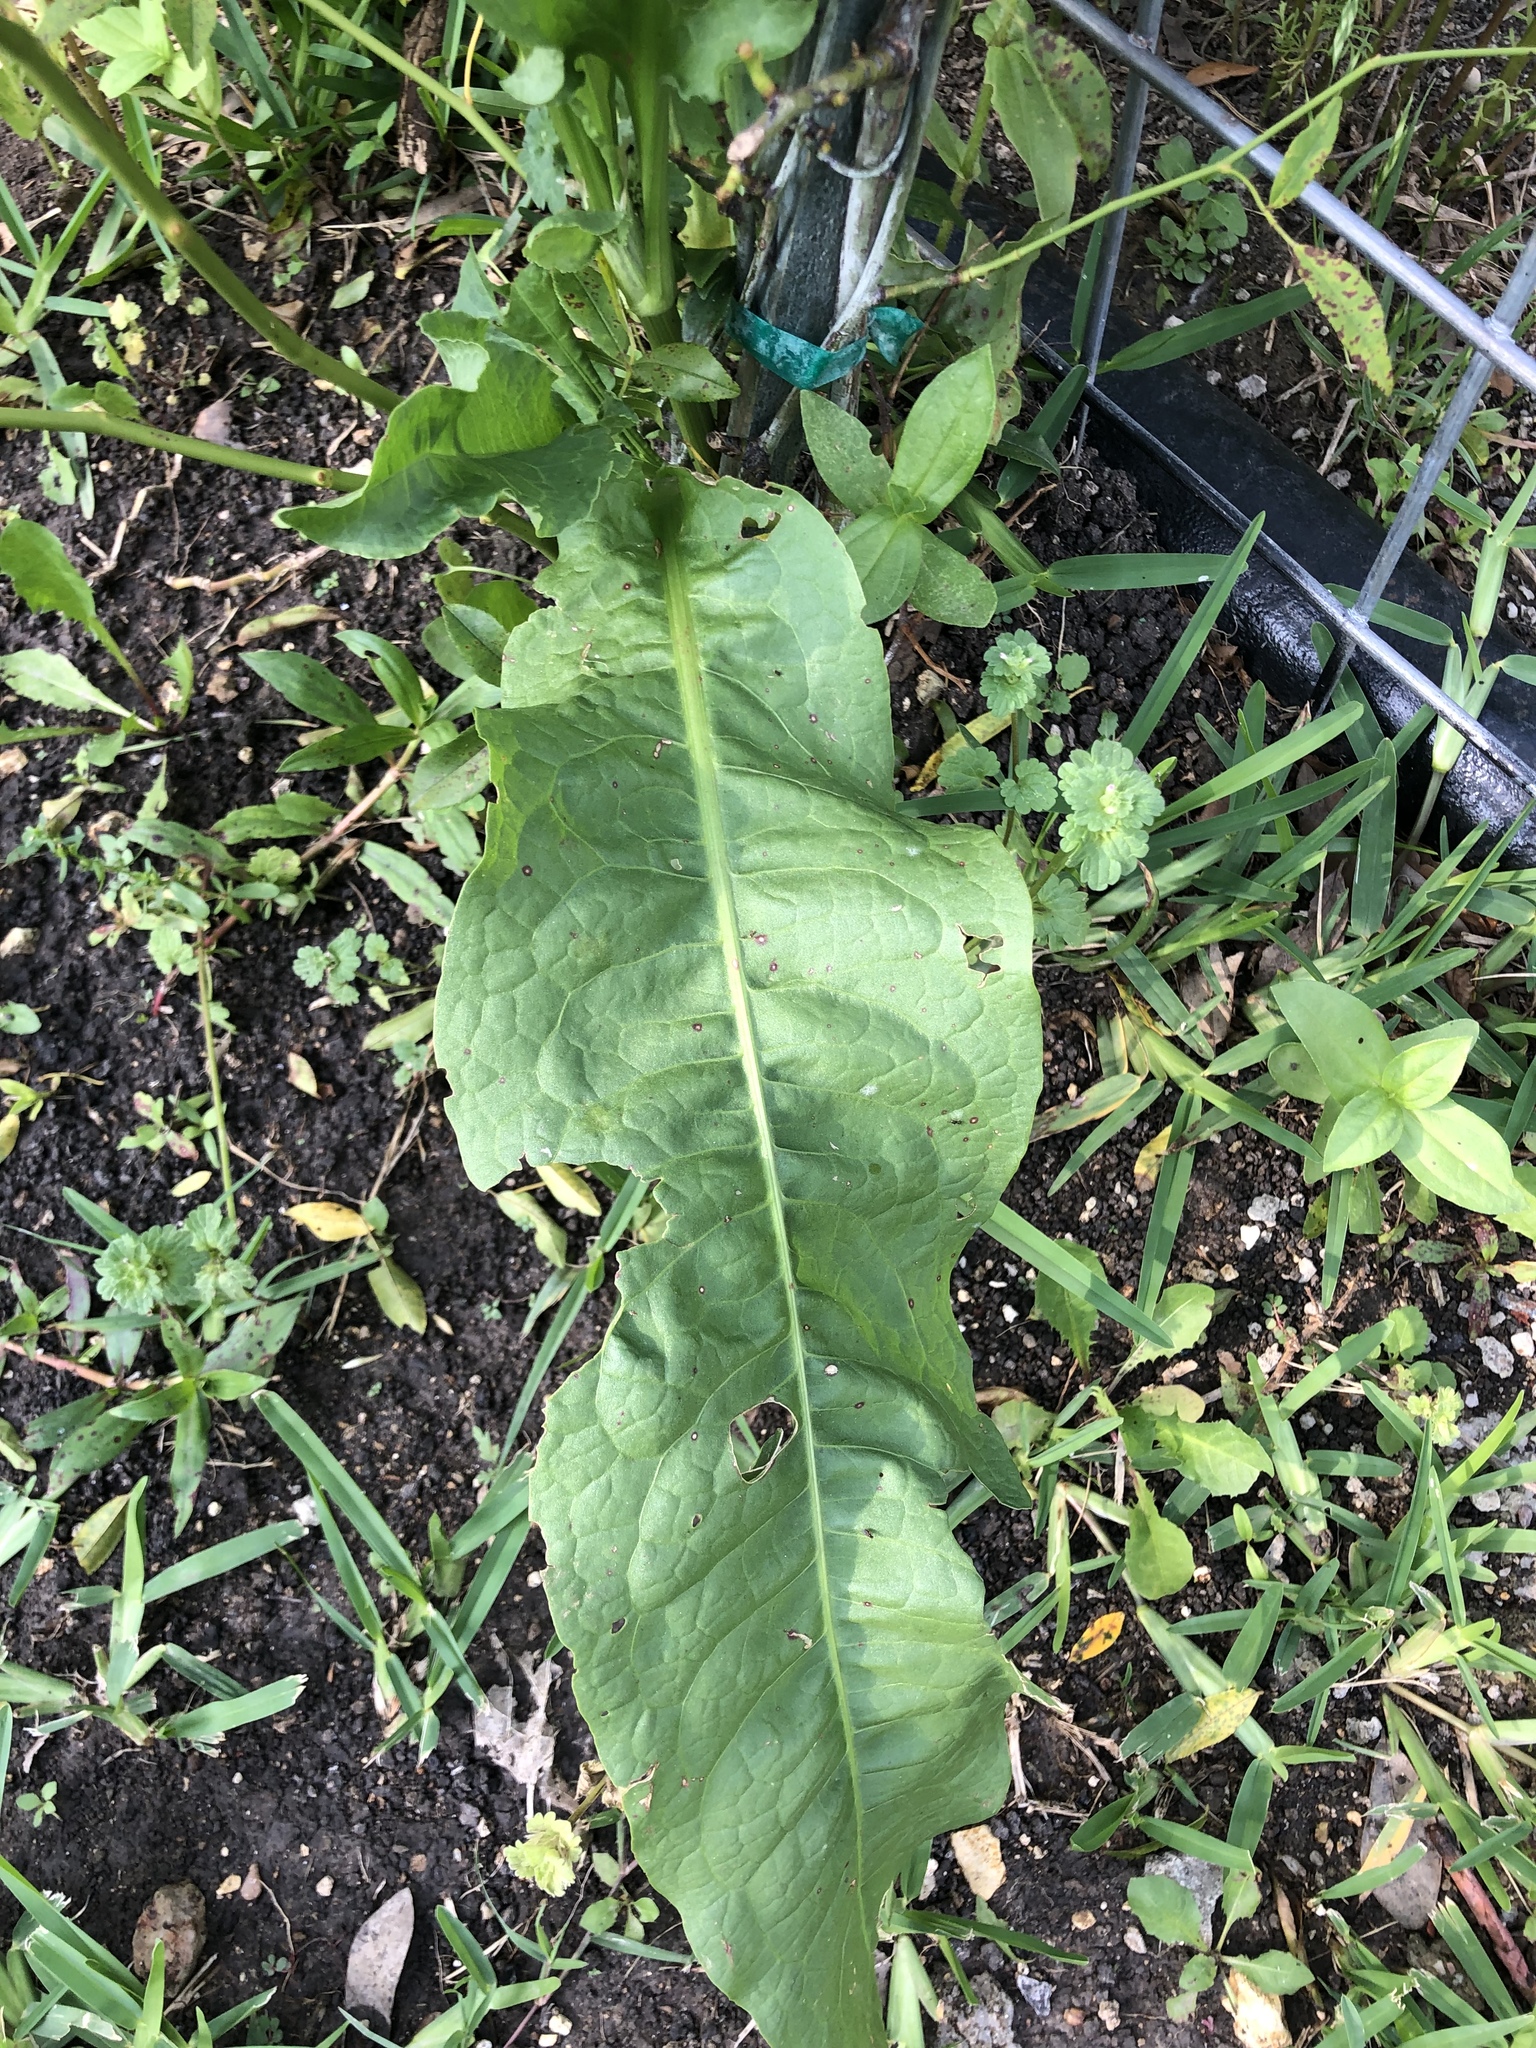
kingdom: Plantae
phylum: Tracheophyta
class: Magnoliopsida
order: Caryophyllales
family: Polygonaceae
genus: Rumex
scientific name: Rumex crispus
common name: Curled dock
